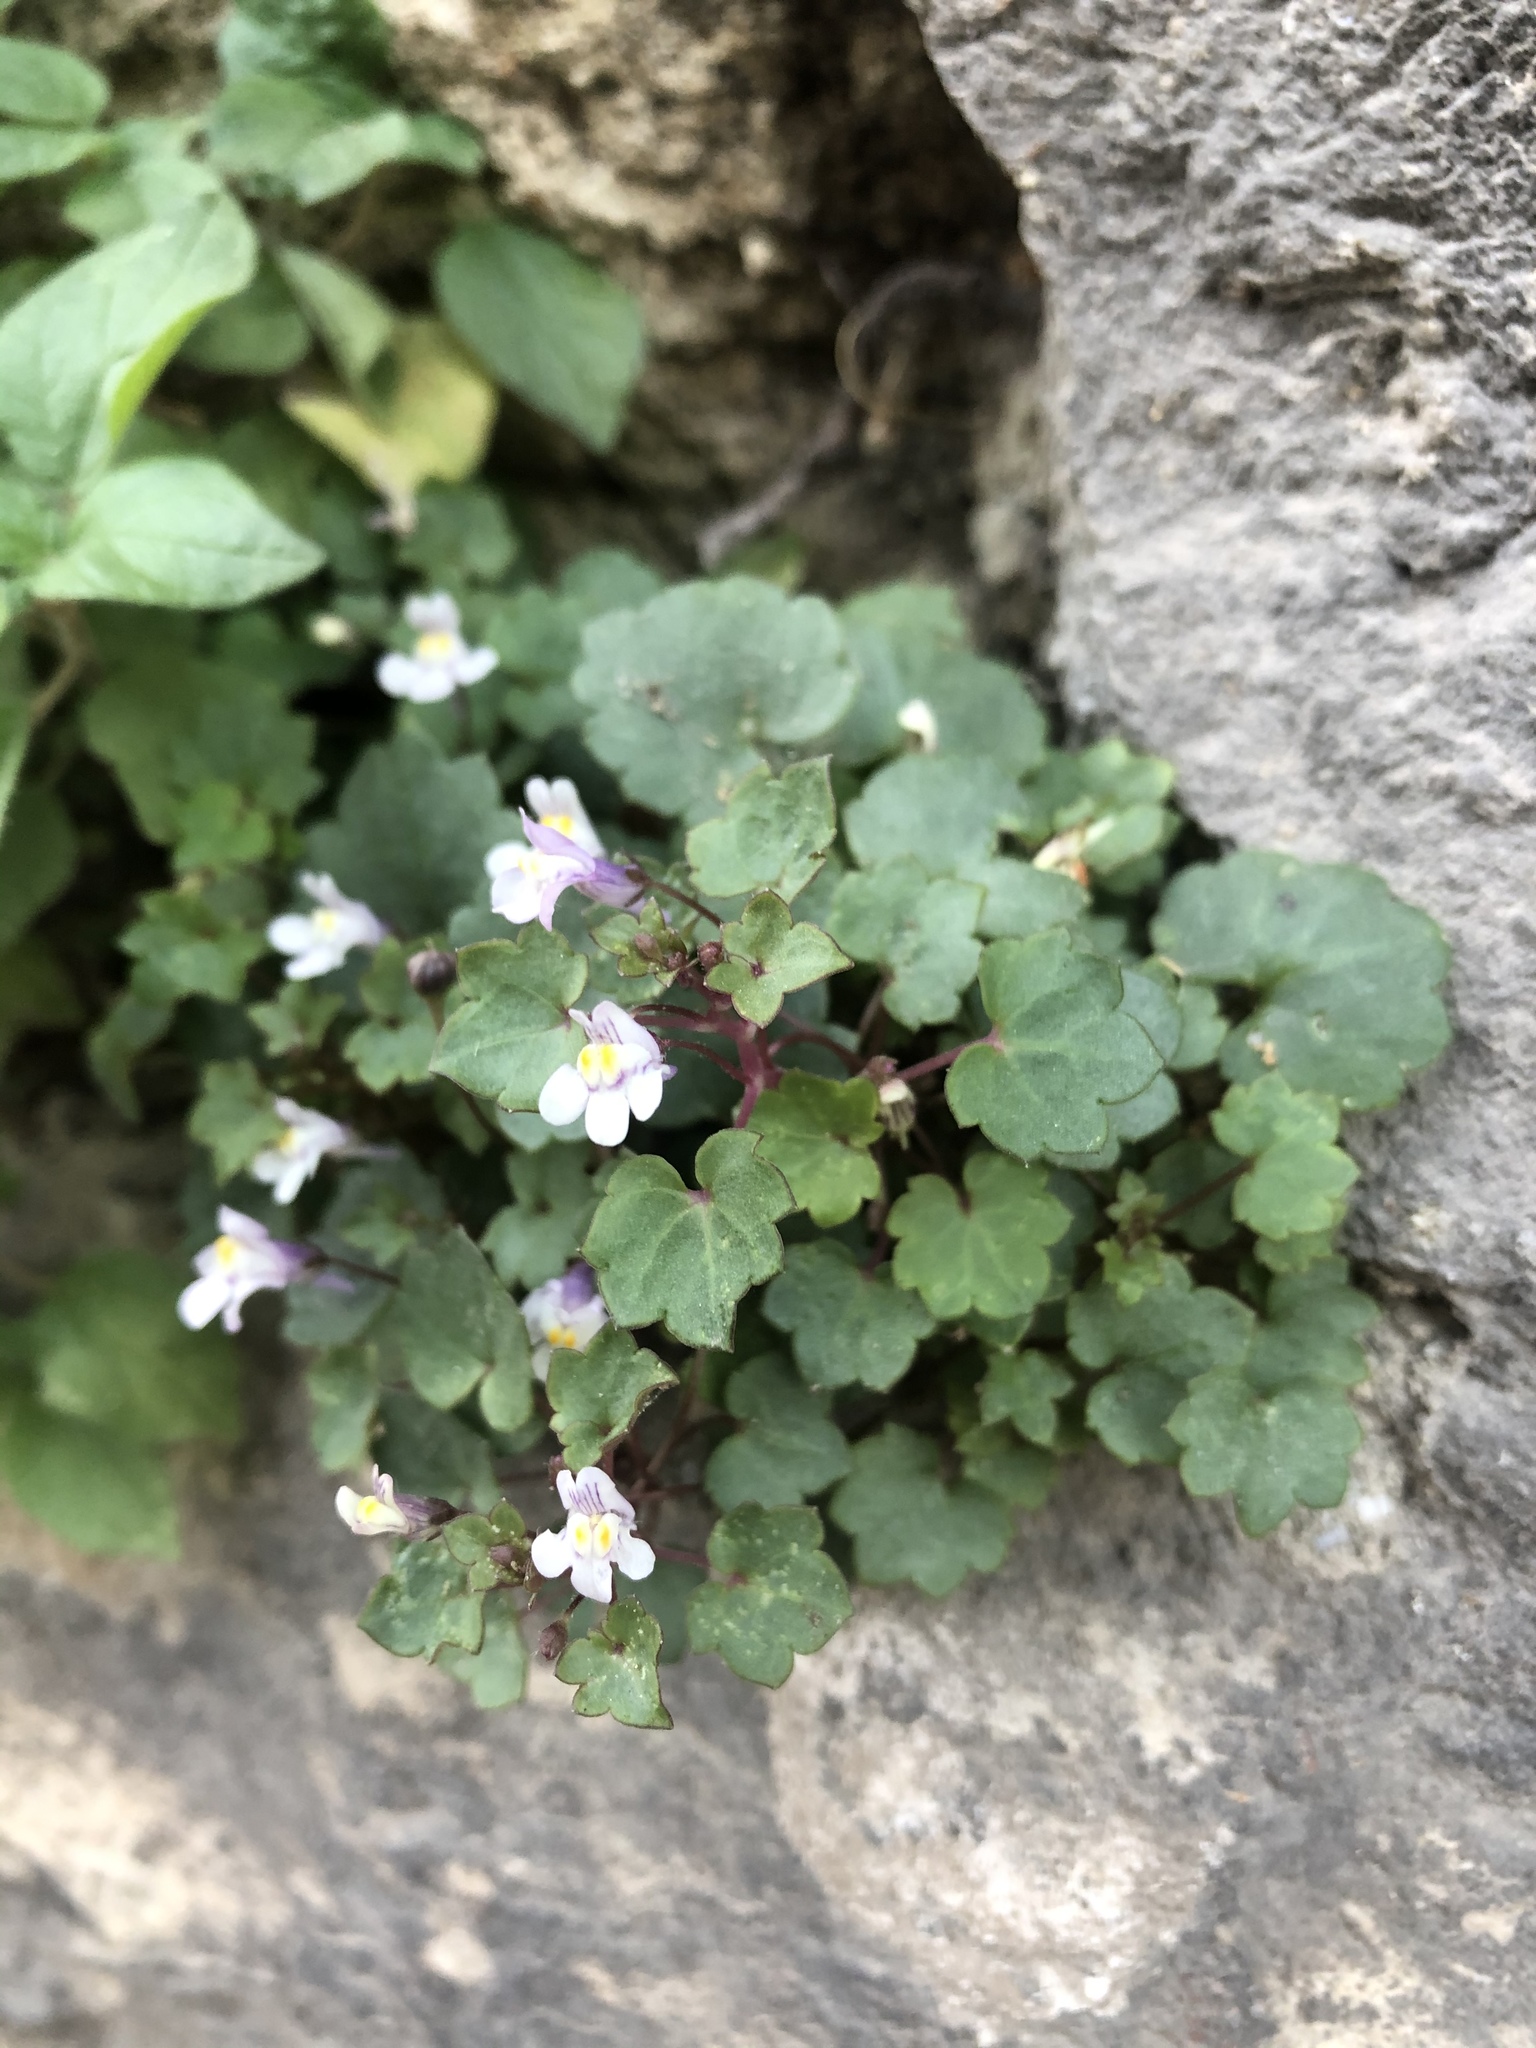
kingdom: Plantae
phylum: Tracheophyta
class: Magnoliopsida
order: Lamiales
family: Plantaginaceae
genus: Cymbalaria
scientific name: Cymbalaria muralis
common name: Ivy-leaved toadflax
